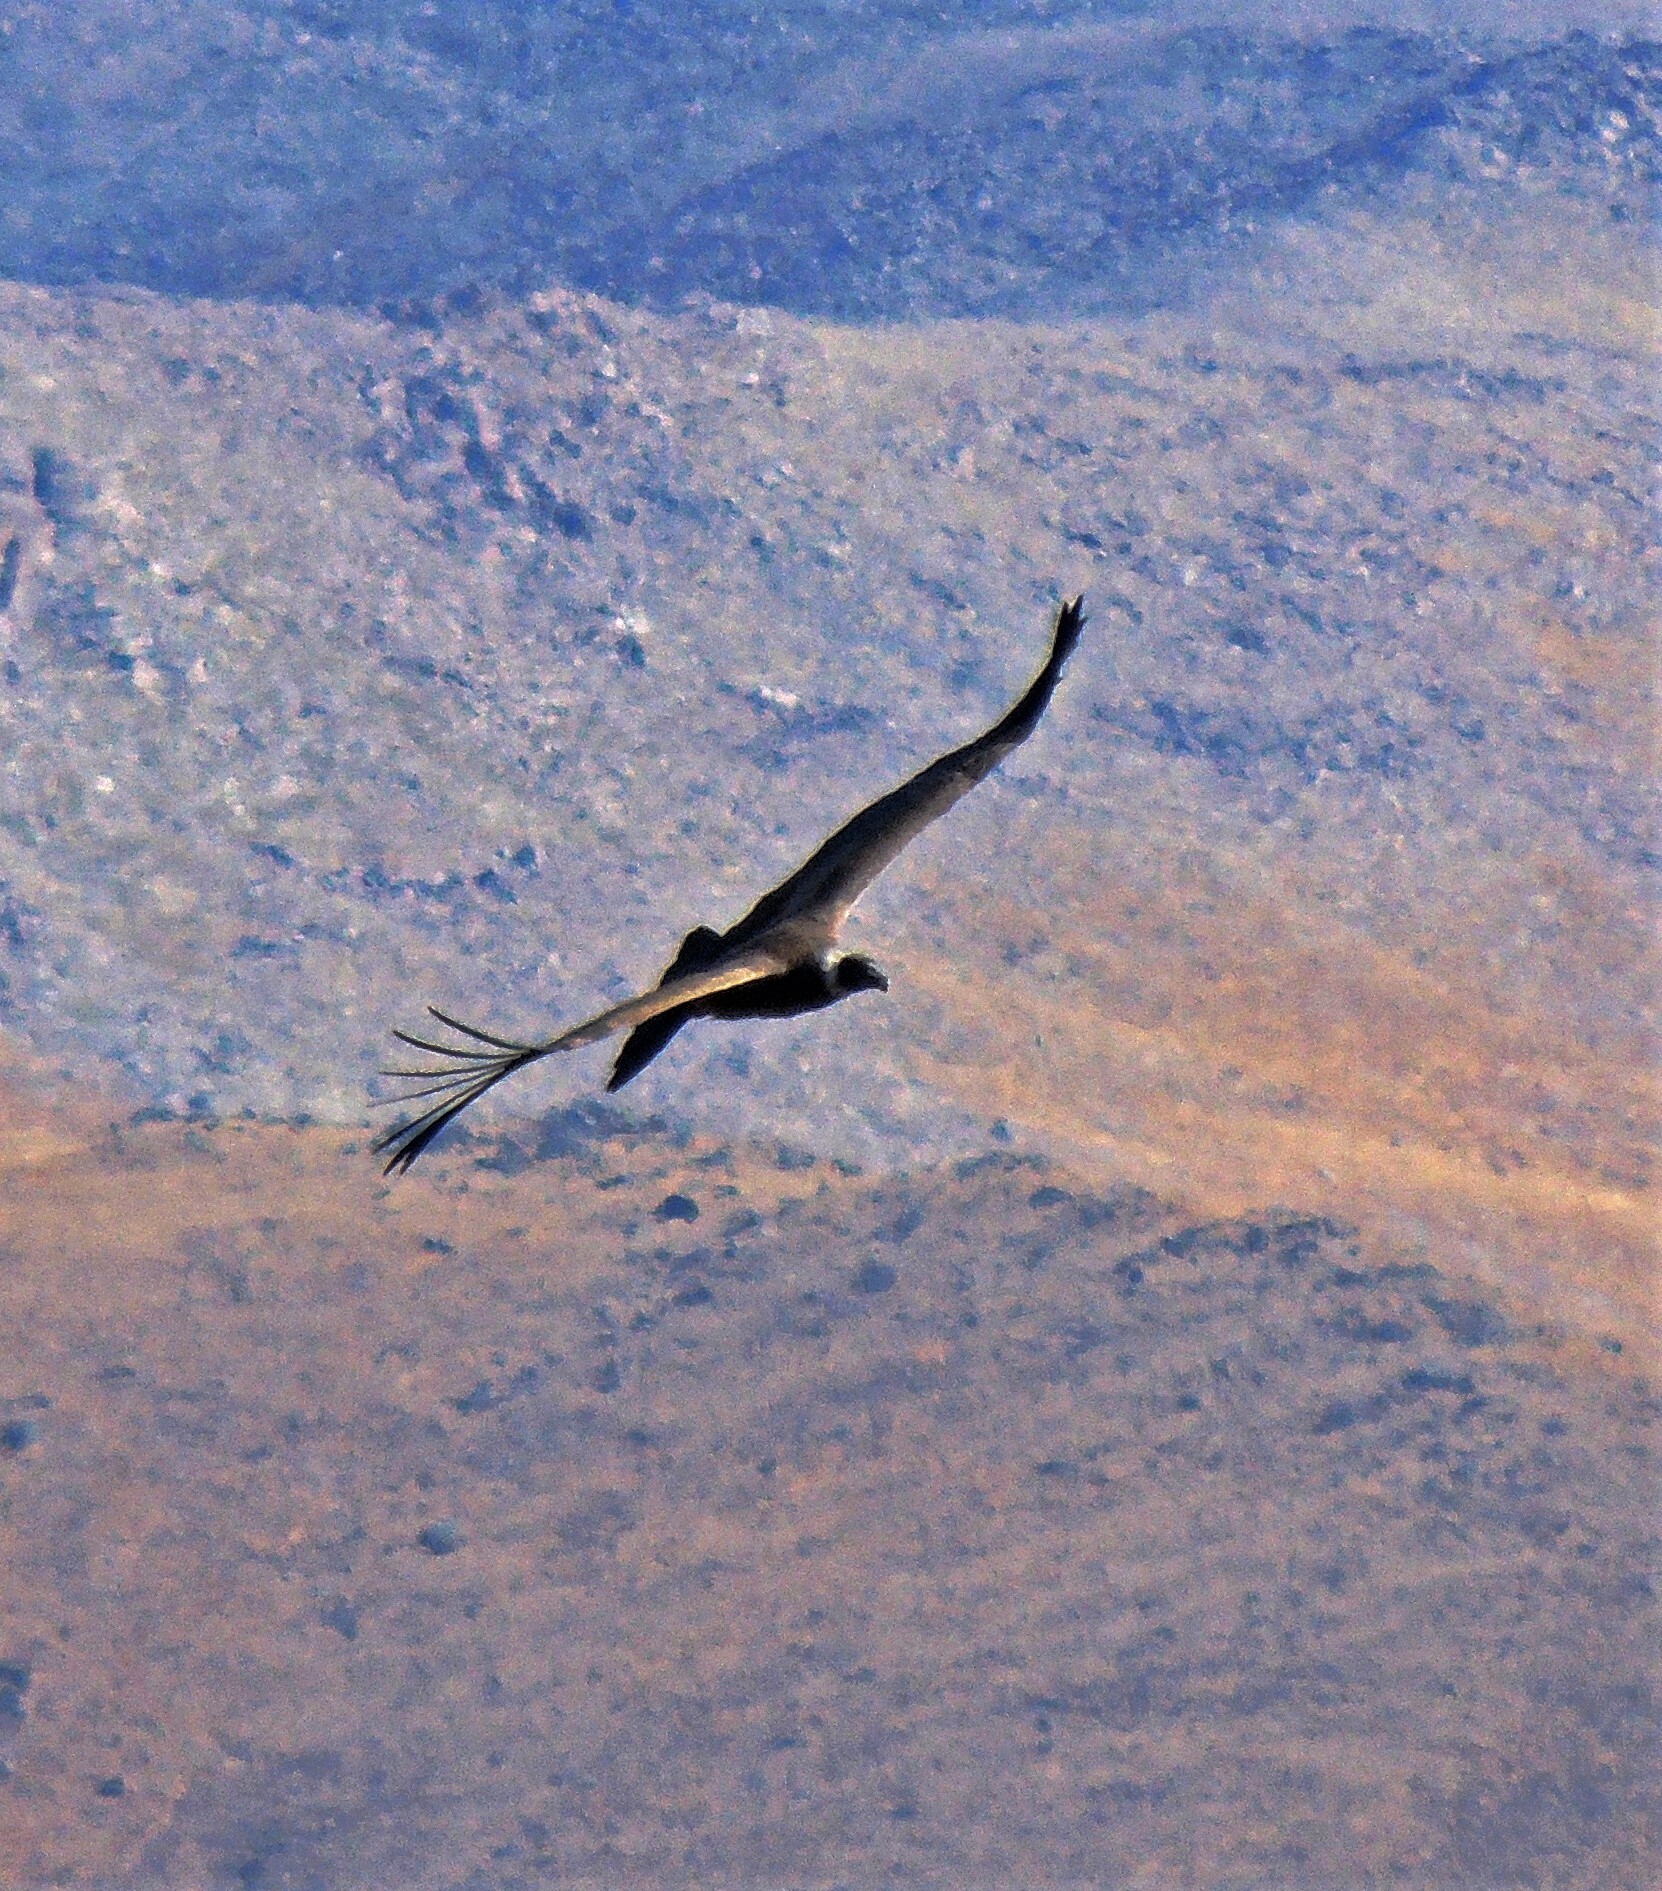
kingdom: Animalia
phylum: Chordata
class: Aves
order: Accipitriformes
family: Cathartidae
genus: Vultur
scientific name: Vultur gryphus
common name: Andean condor
